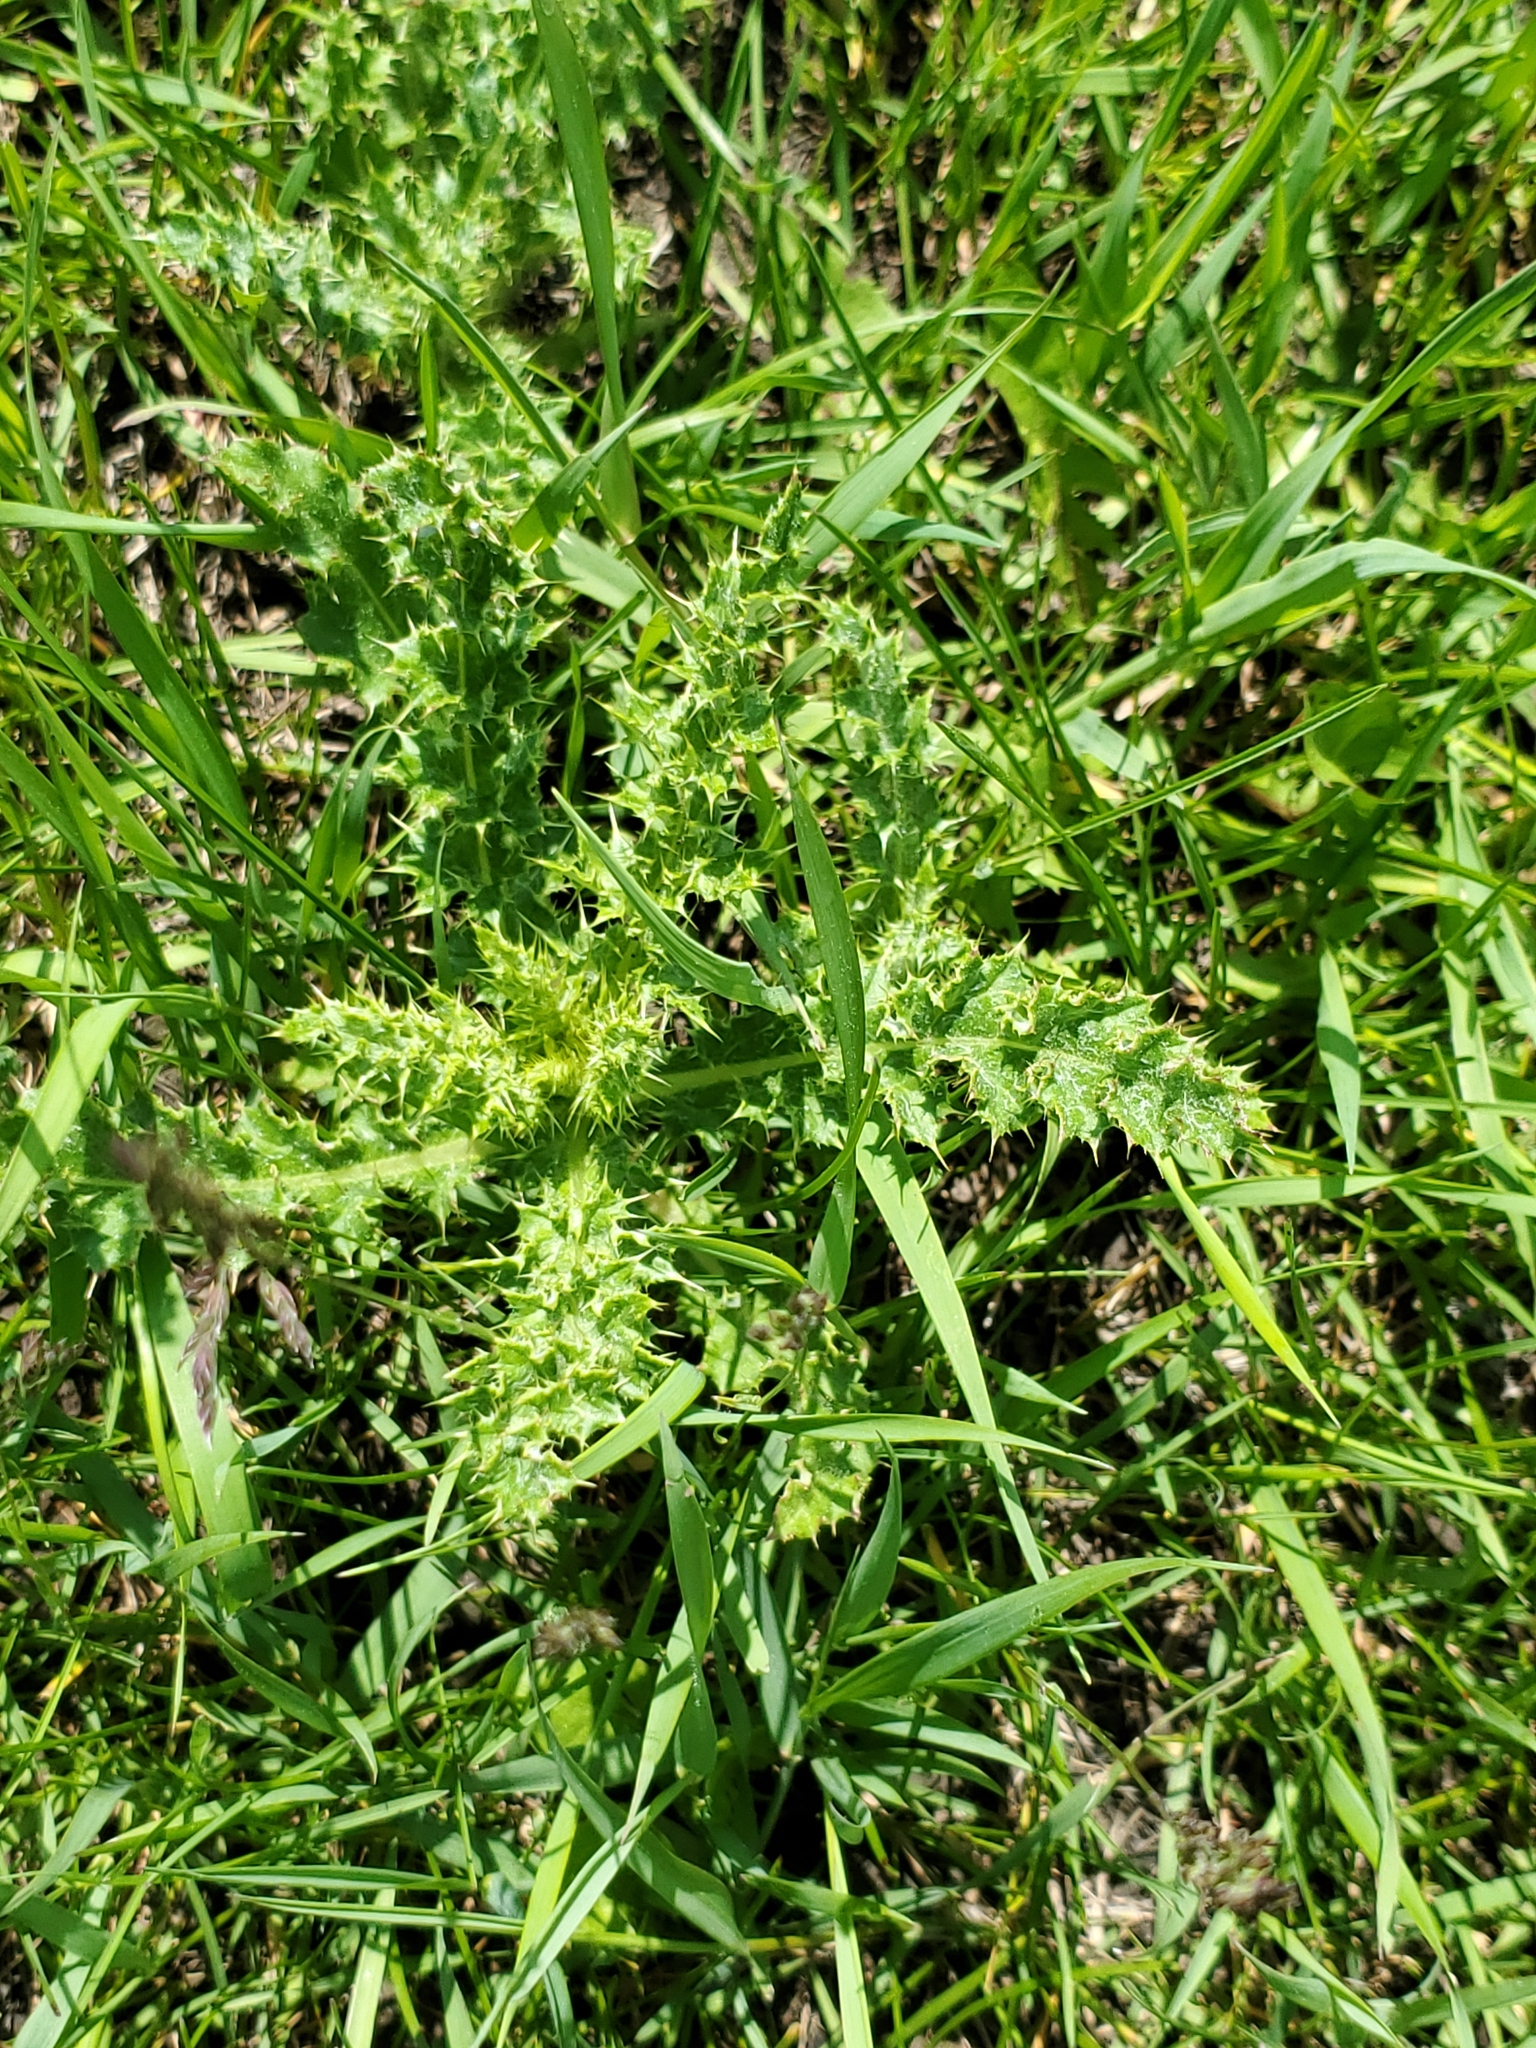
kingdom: Plantae
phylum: Tracheophyta
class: Magnoliopsida
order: Asterales
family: Asteraceae
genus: Cirsium
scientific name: Cirsium arvense
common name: Creeping thistle
